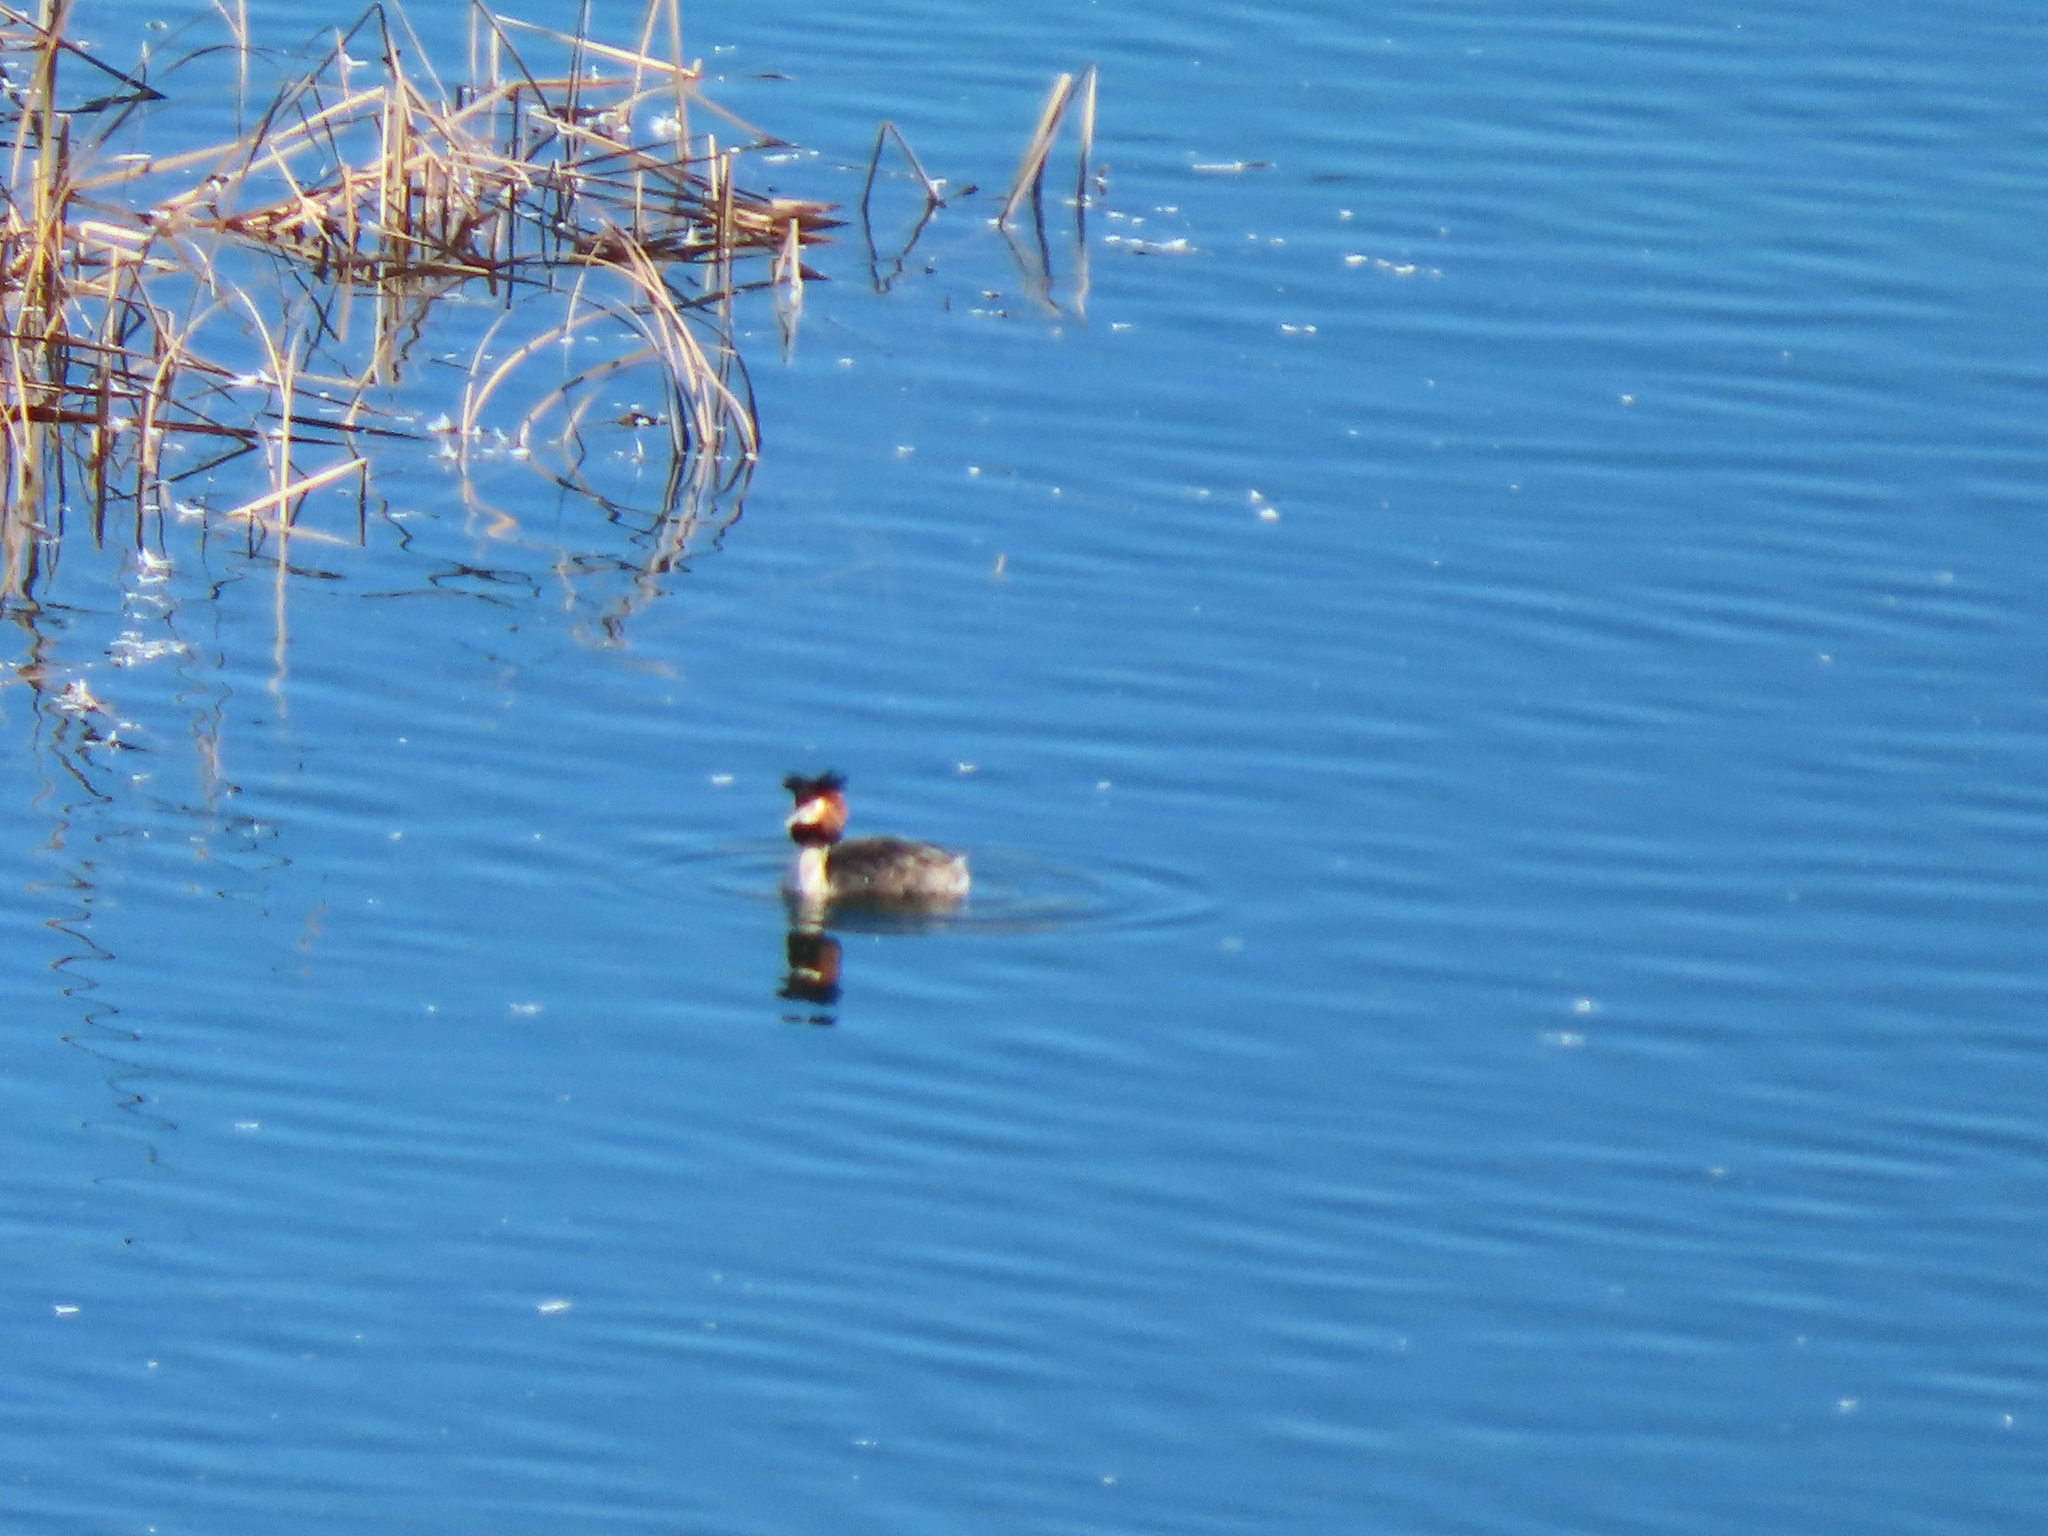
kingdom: Animalia
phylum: Chordata
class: Aves
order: Podicipediformes
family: Podicipedidae
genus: Podiceps
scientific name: Podiceps cristatus
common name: Great crested grebe
